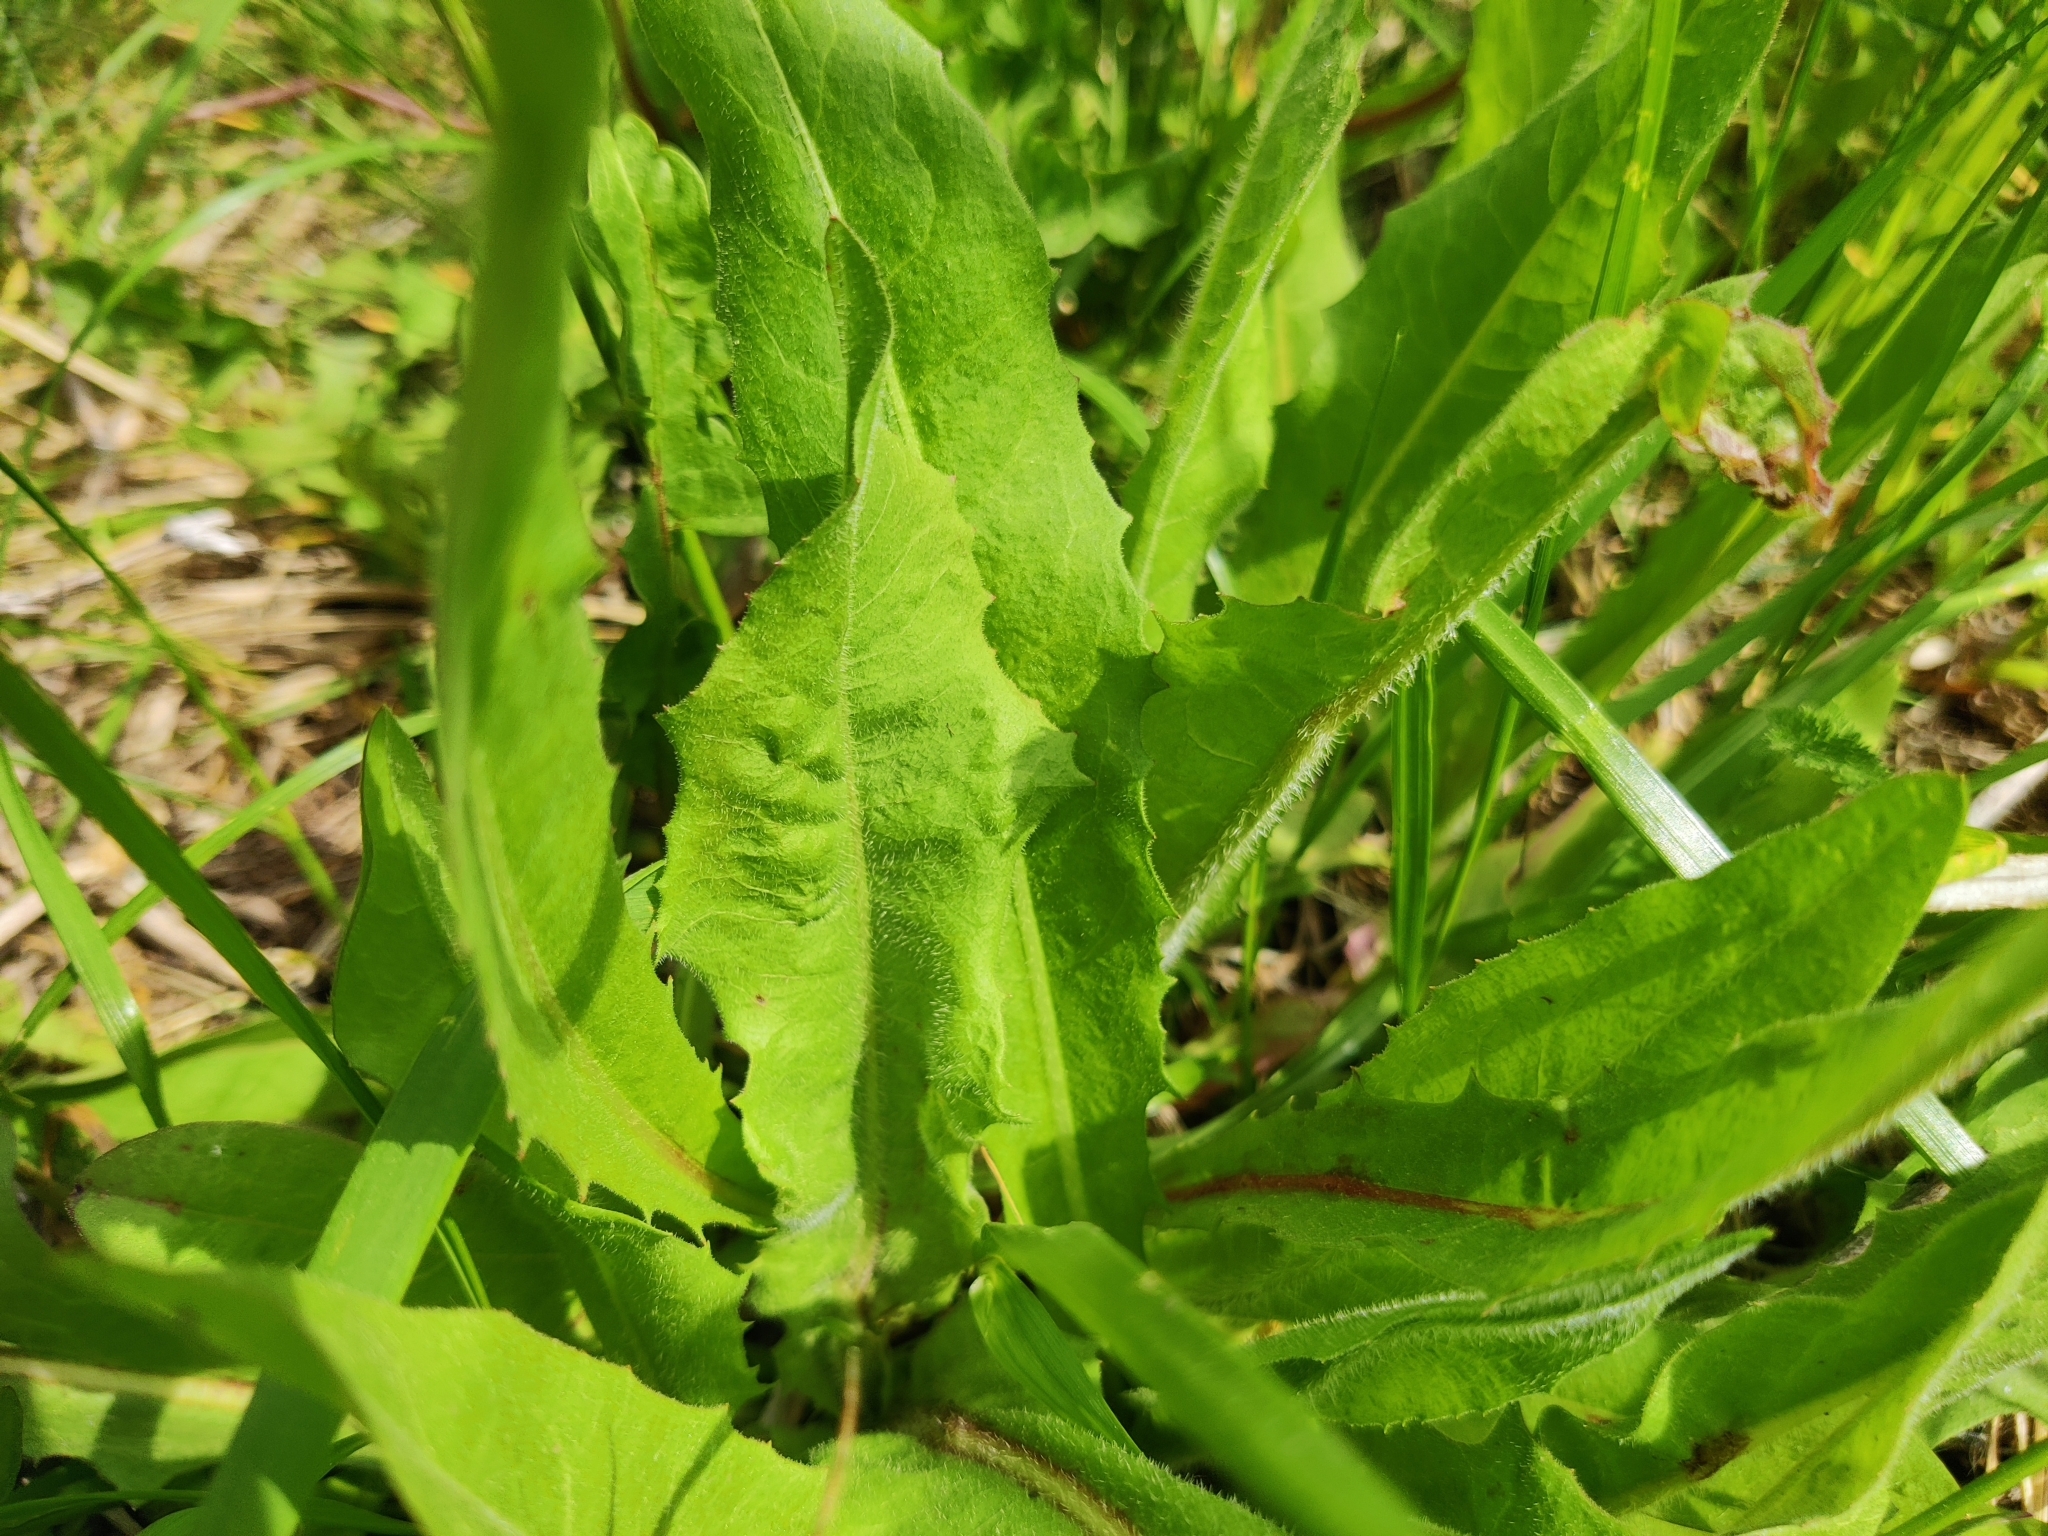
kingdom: Plantae
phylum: Tracheophyta
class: Magnoliopsida
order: Asterales
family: Asteraceae
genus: Cichorium
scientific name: Cichorium intybus
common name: Chicory
